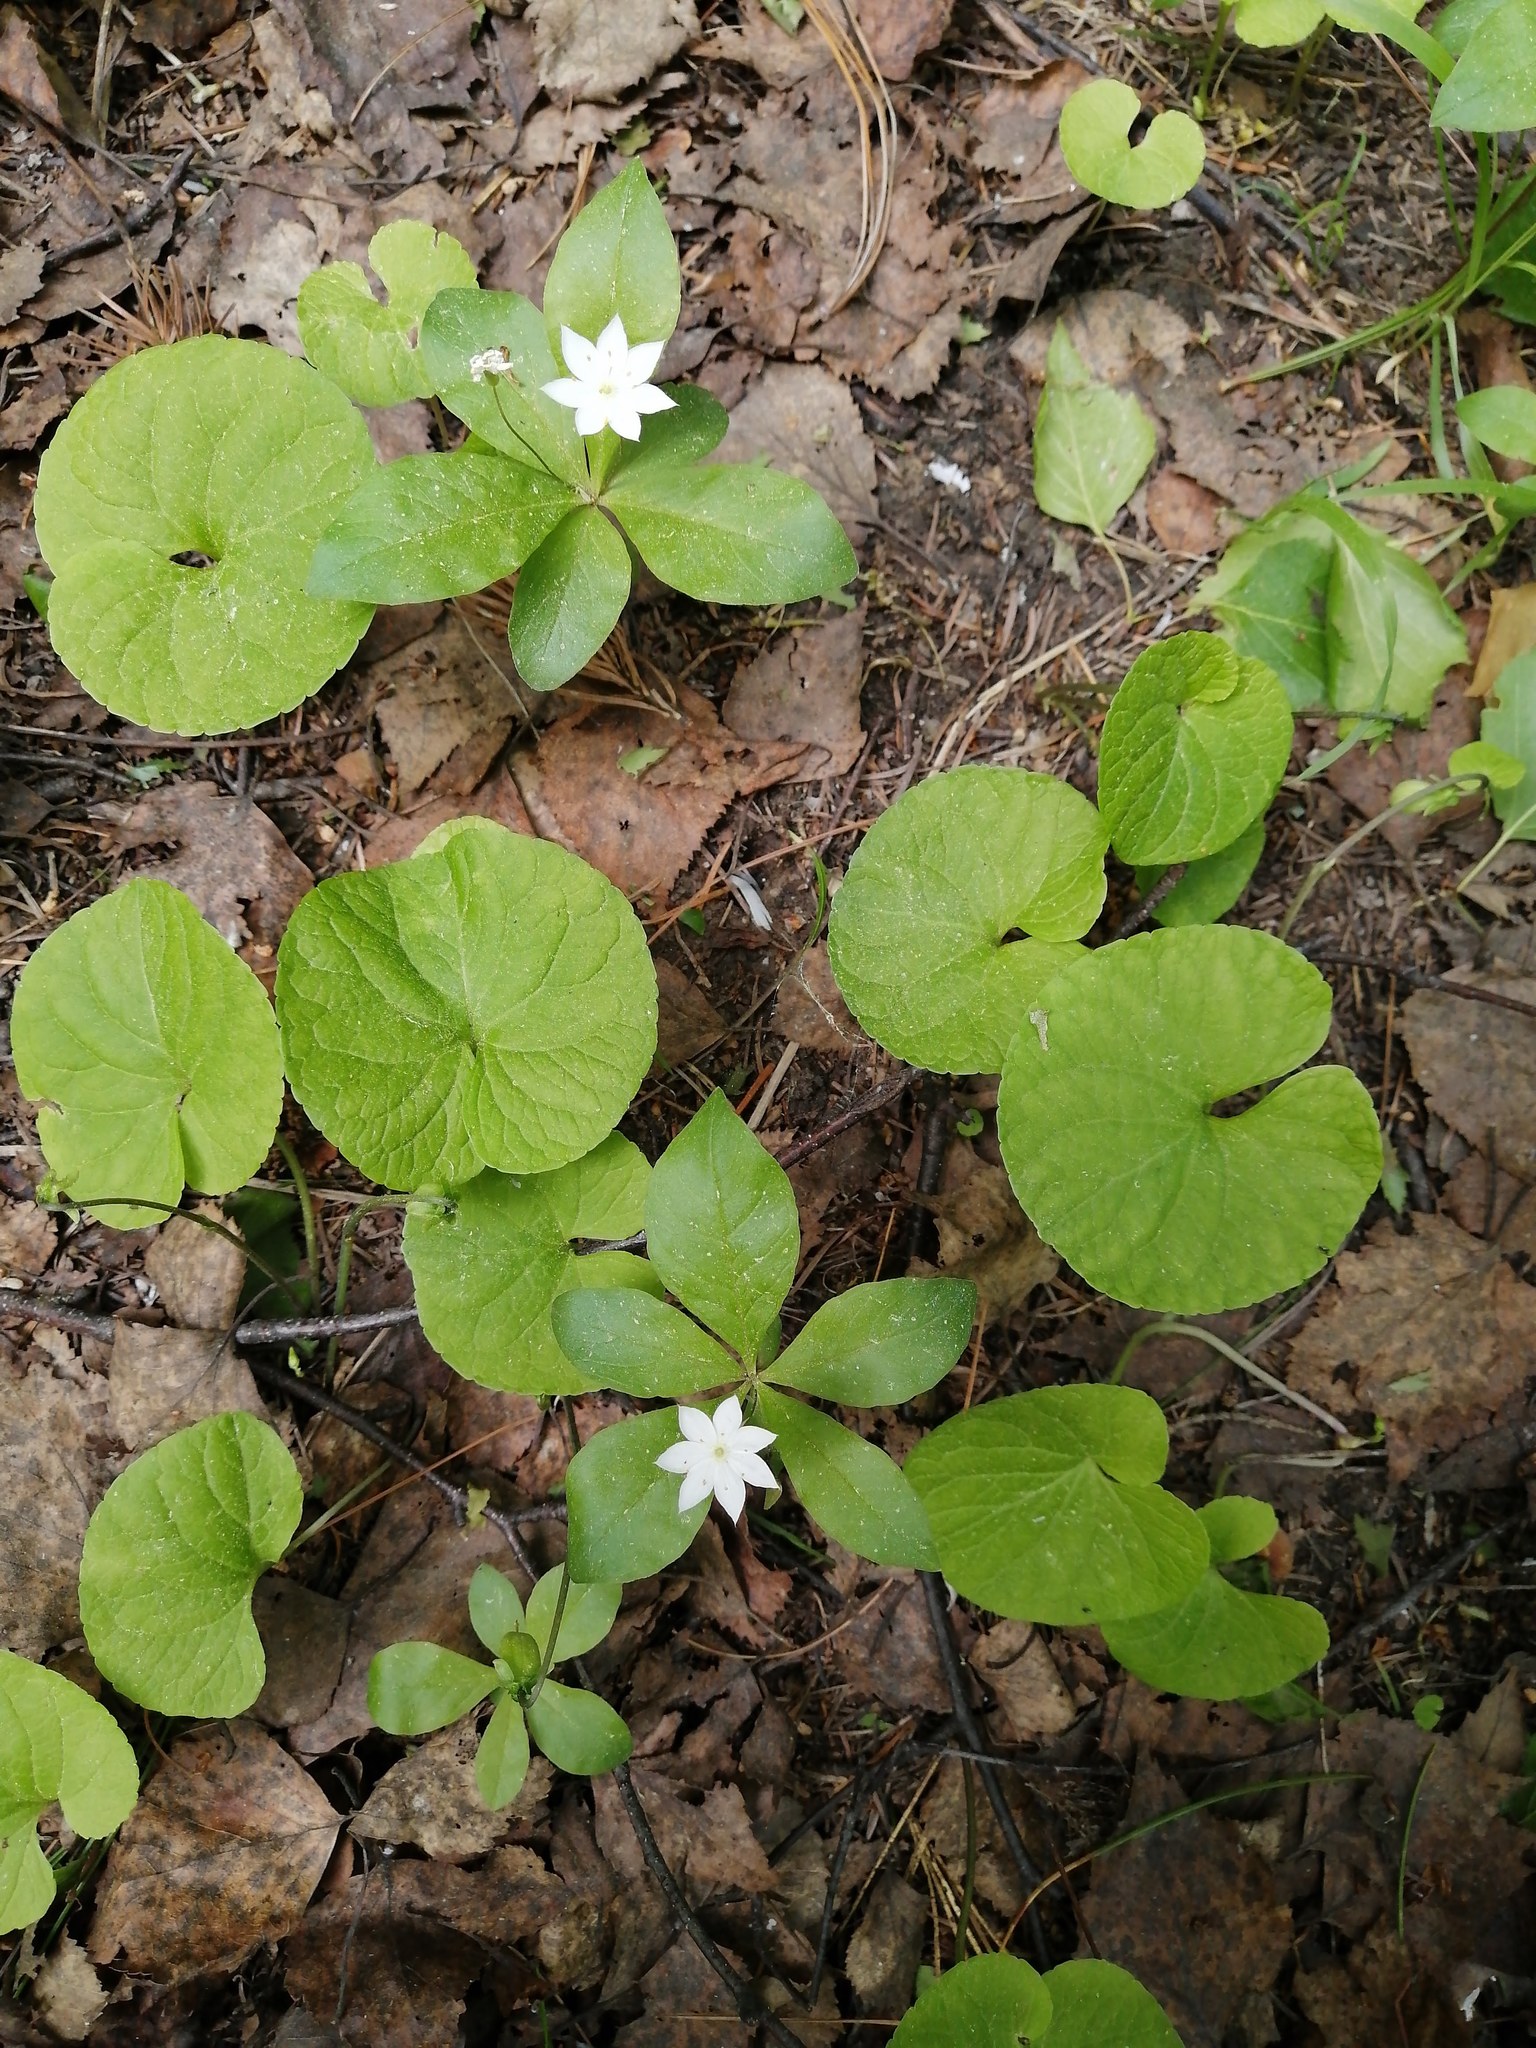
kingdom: Plantae
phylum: Tracheophyta
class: Magnoliopsida
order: Malpighiales
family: Violaceae
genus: Viola
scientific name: Viola epipsila
